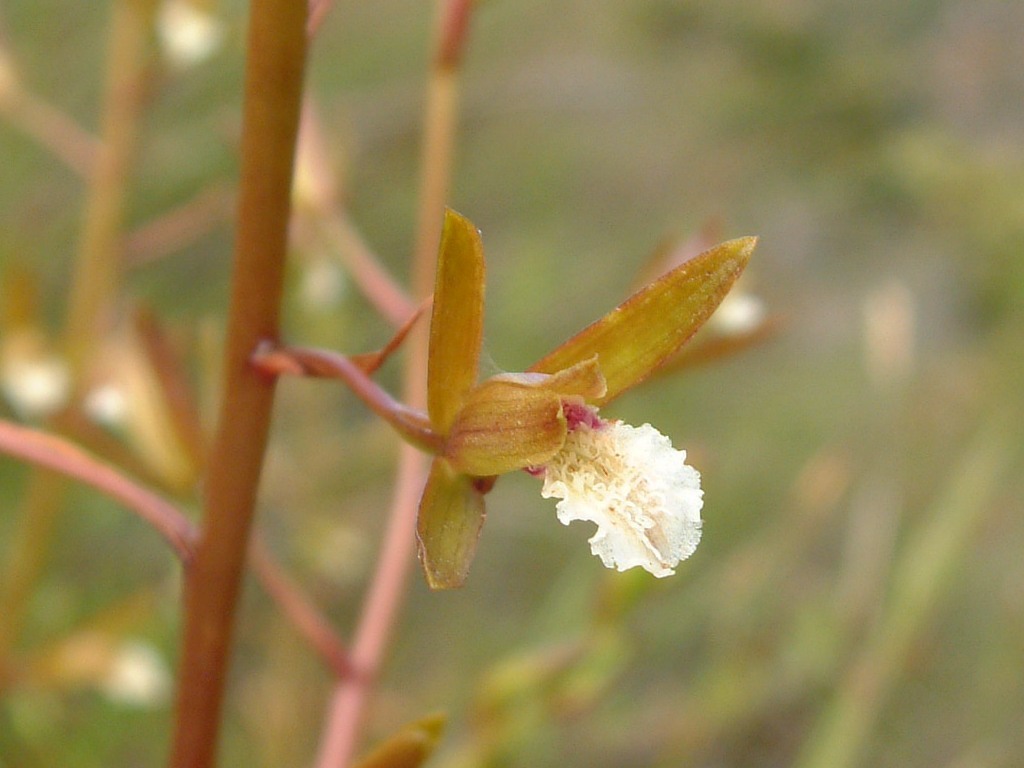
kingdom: Plantae
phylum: Tracheophyta
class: Liliopsida
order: Asparagales
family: Orchidaceae
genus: Eulophia
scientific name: Eulophia tristis
